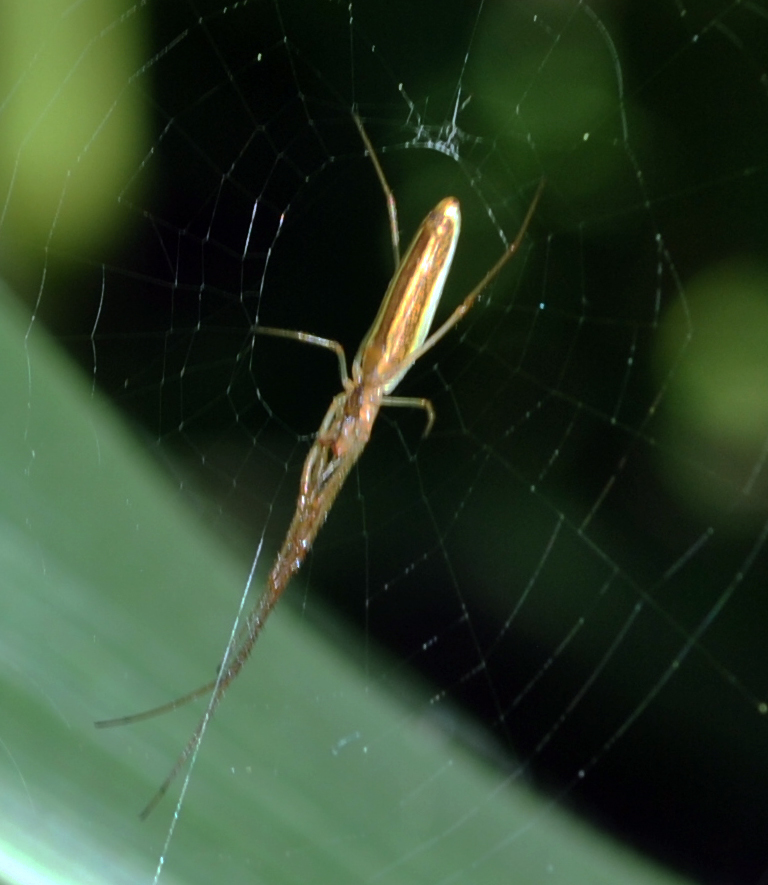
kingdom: Animalia
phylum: Arthropoda
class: Arachnida
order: Araneae
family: Tetragnathidae
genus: Tetragnatha
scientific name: Tetragnatha
